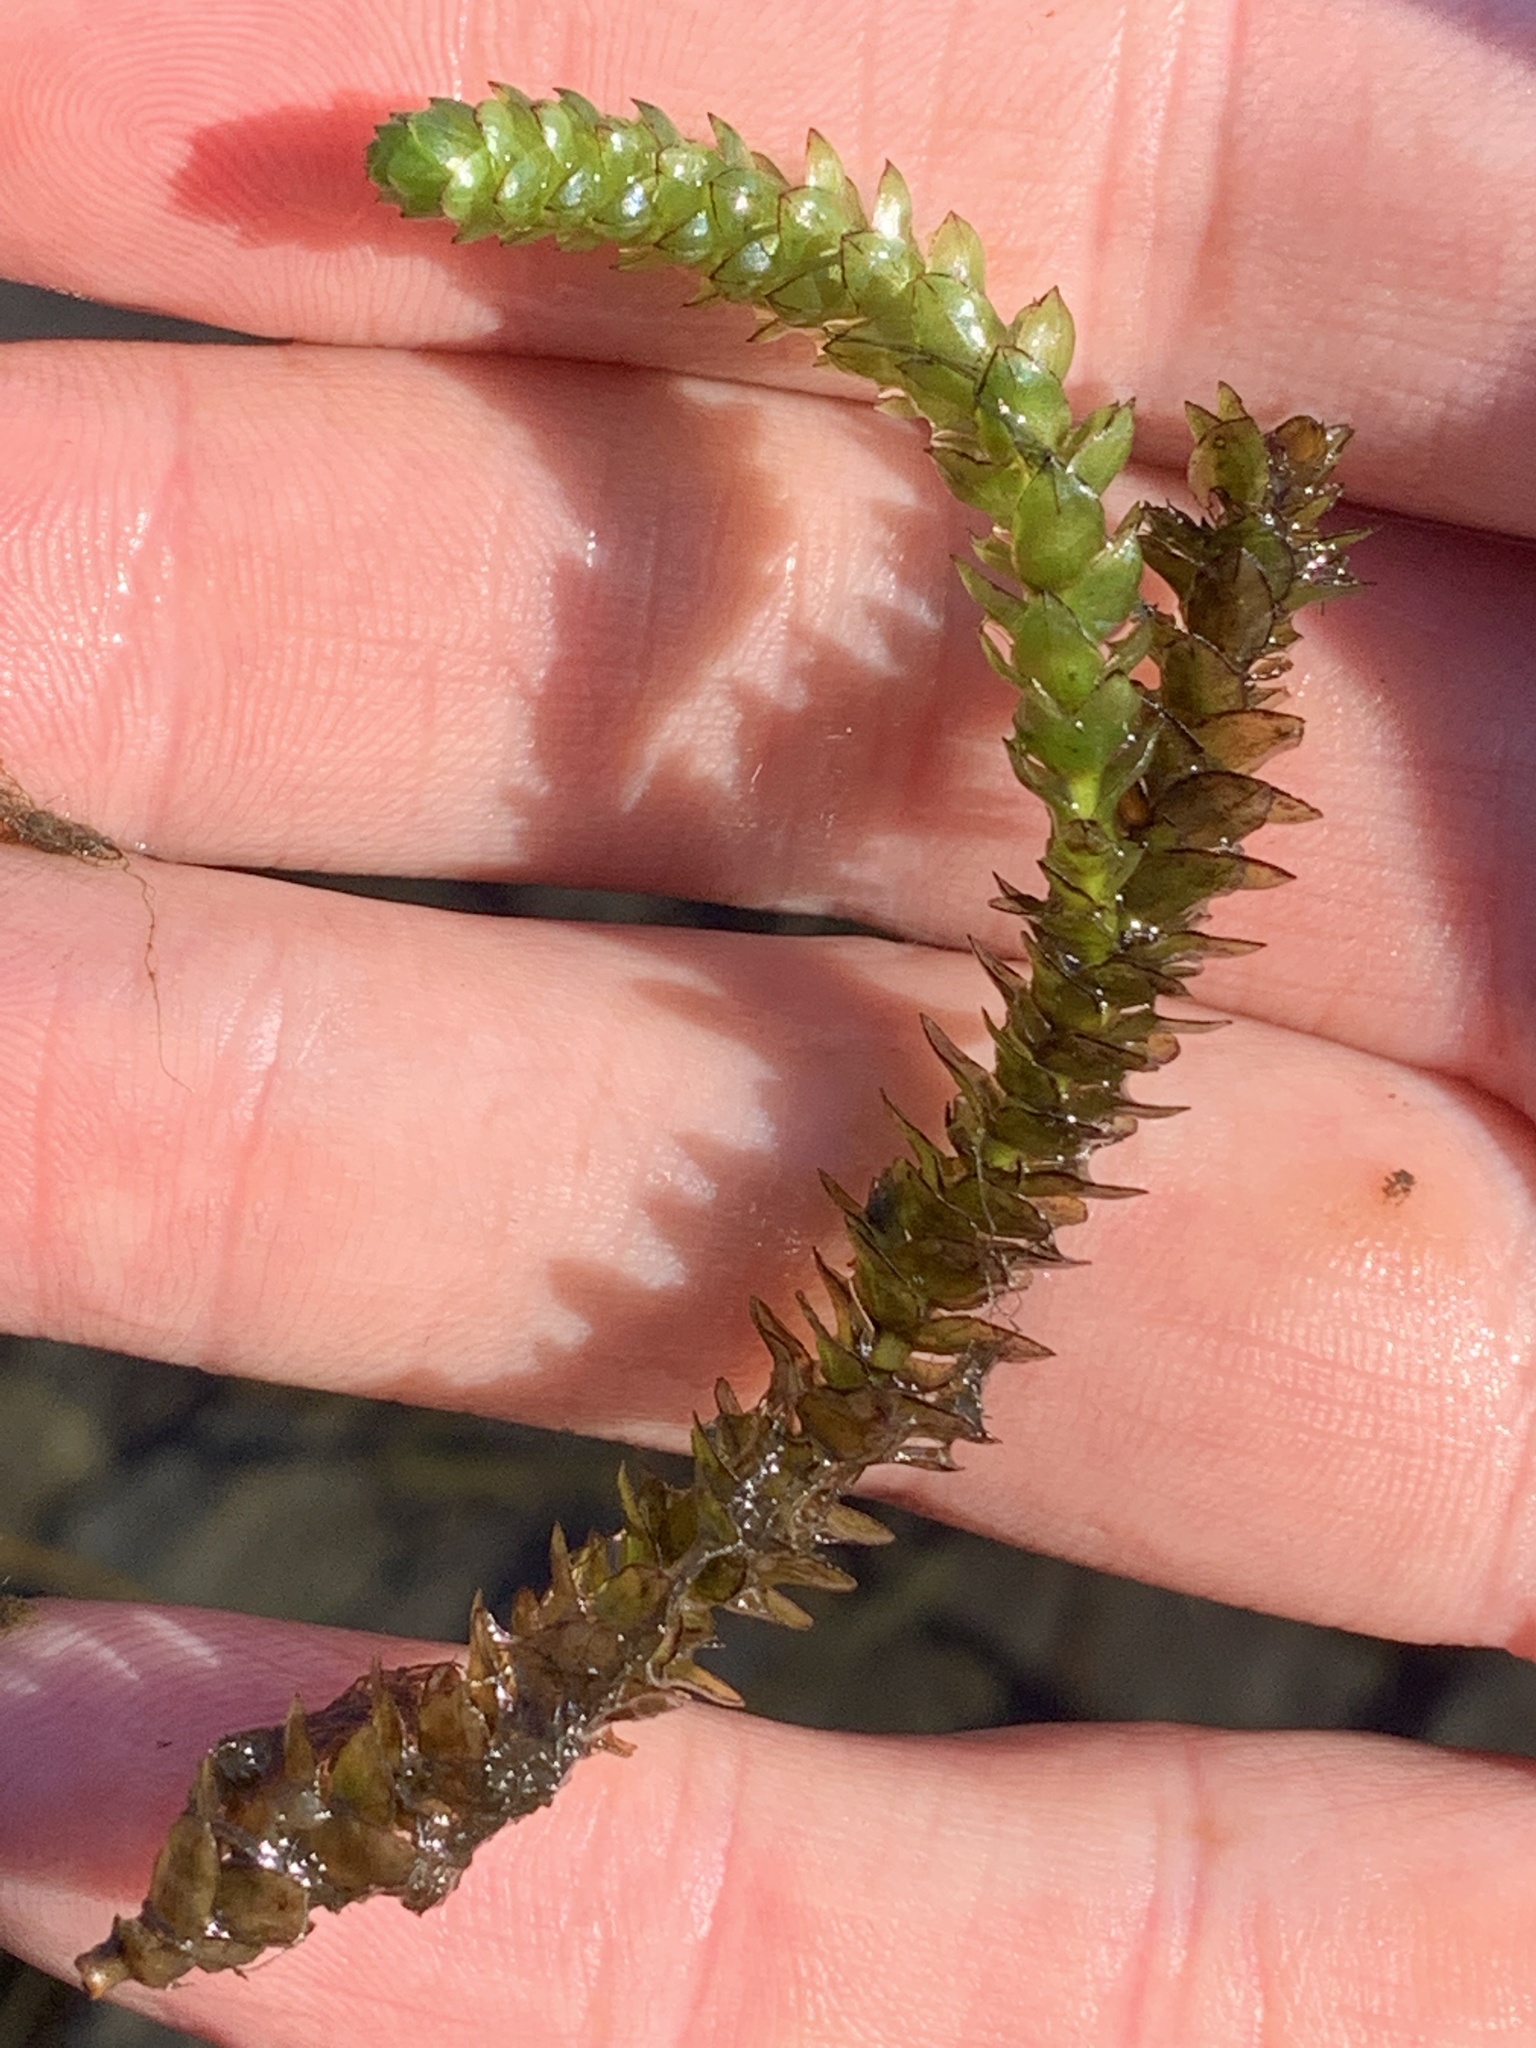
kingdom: Plantae
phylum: Tracheophyta
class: Liliopsida
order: Alismatales
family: Hydrocharitaceae
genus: Elodea
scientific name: Elodea canadensis
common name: Canadian waterweed
